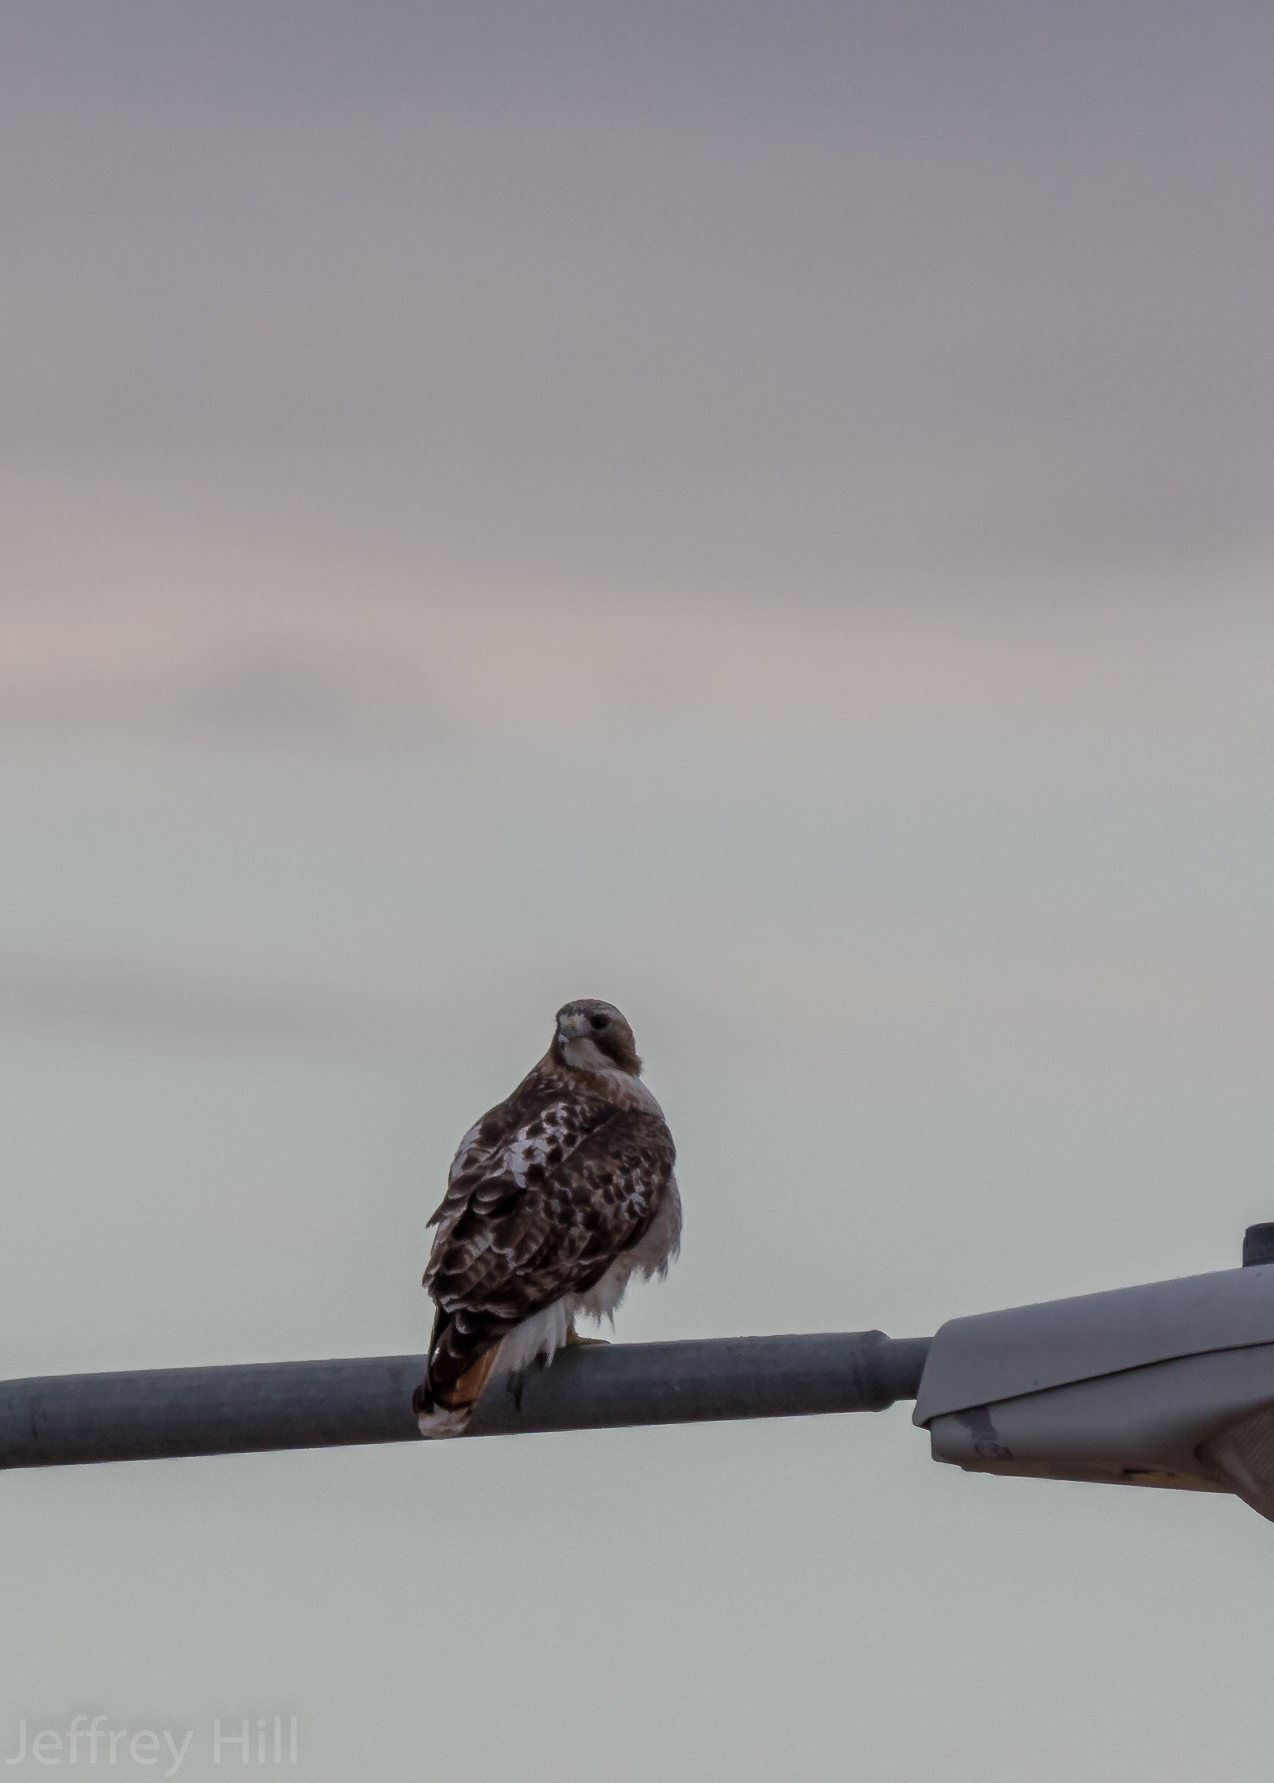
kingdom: Animalia
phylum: Chordata
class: Aves
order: Accipitriformes
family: Accipitridae
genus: Buteo
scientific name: Buteo jamaicensis
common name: Red-tailed hawk
